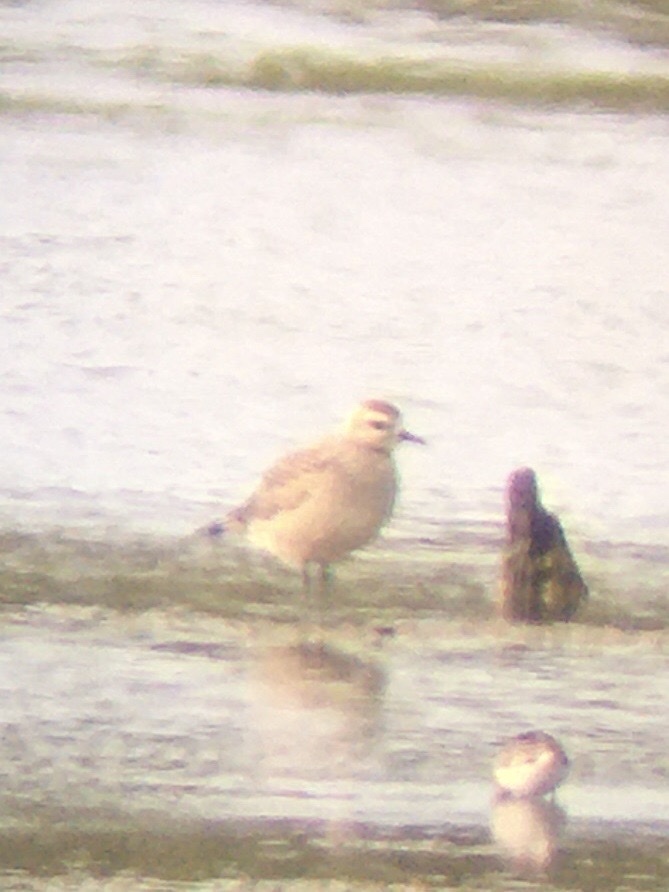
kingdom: Animalia
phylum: Chordata
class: Aves
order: Charadriiformes
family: Charadriidae
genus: Pluvialis
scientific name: Pluvialis dominica
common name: American golden plover
